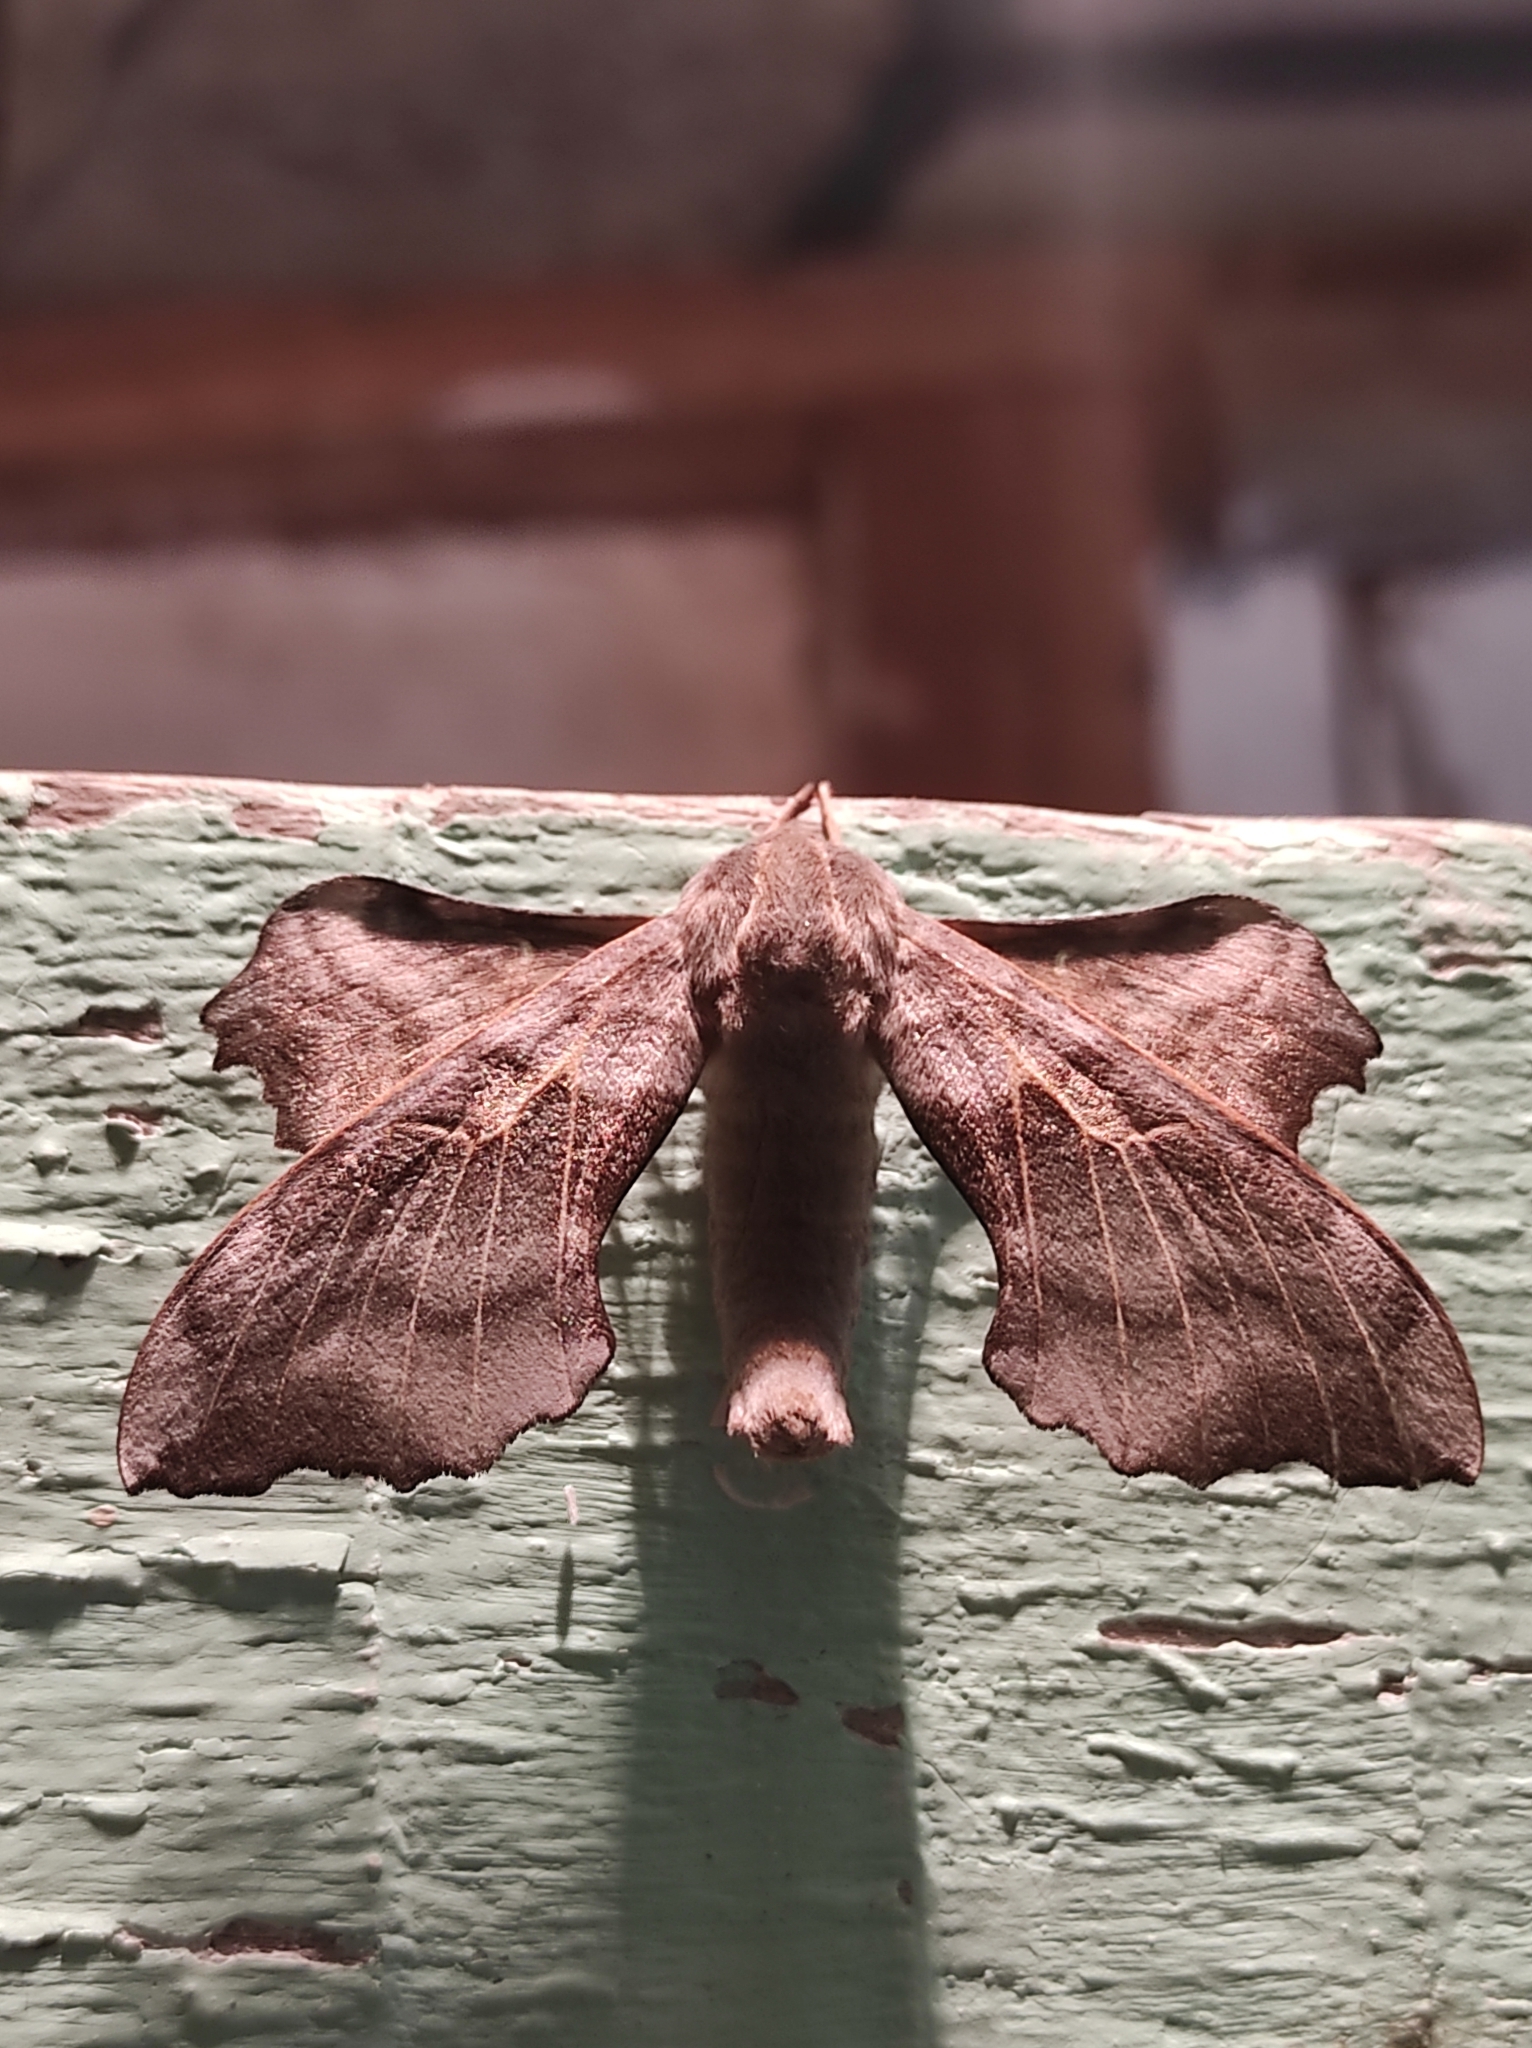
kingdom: Animalia
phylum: Arthropoda
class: Insecta
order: Lepidoptera
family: Sphingidae
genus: Laothoe
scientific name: Laothoe amurensis
